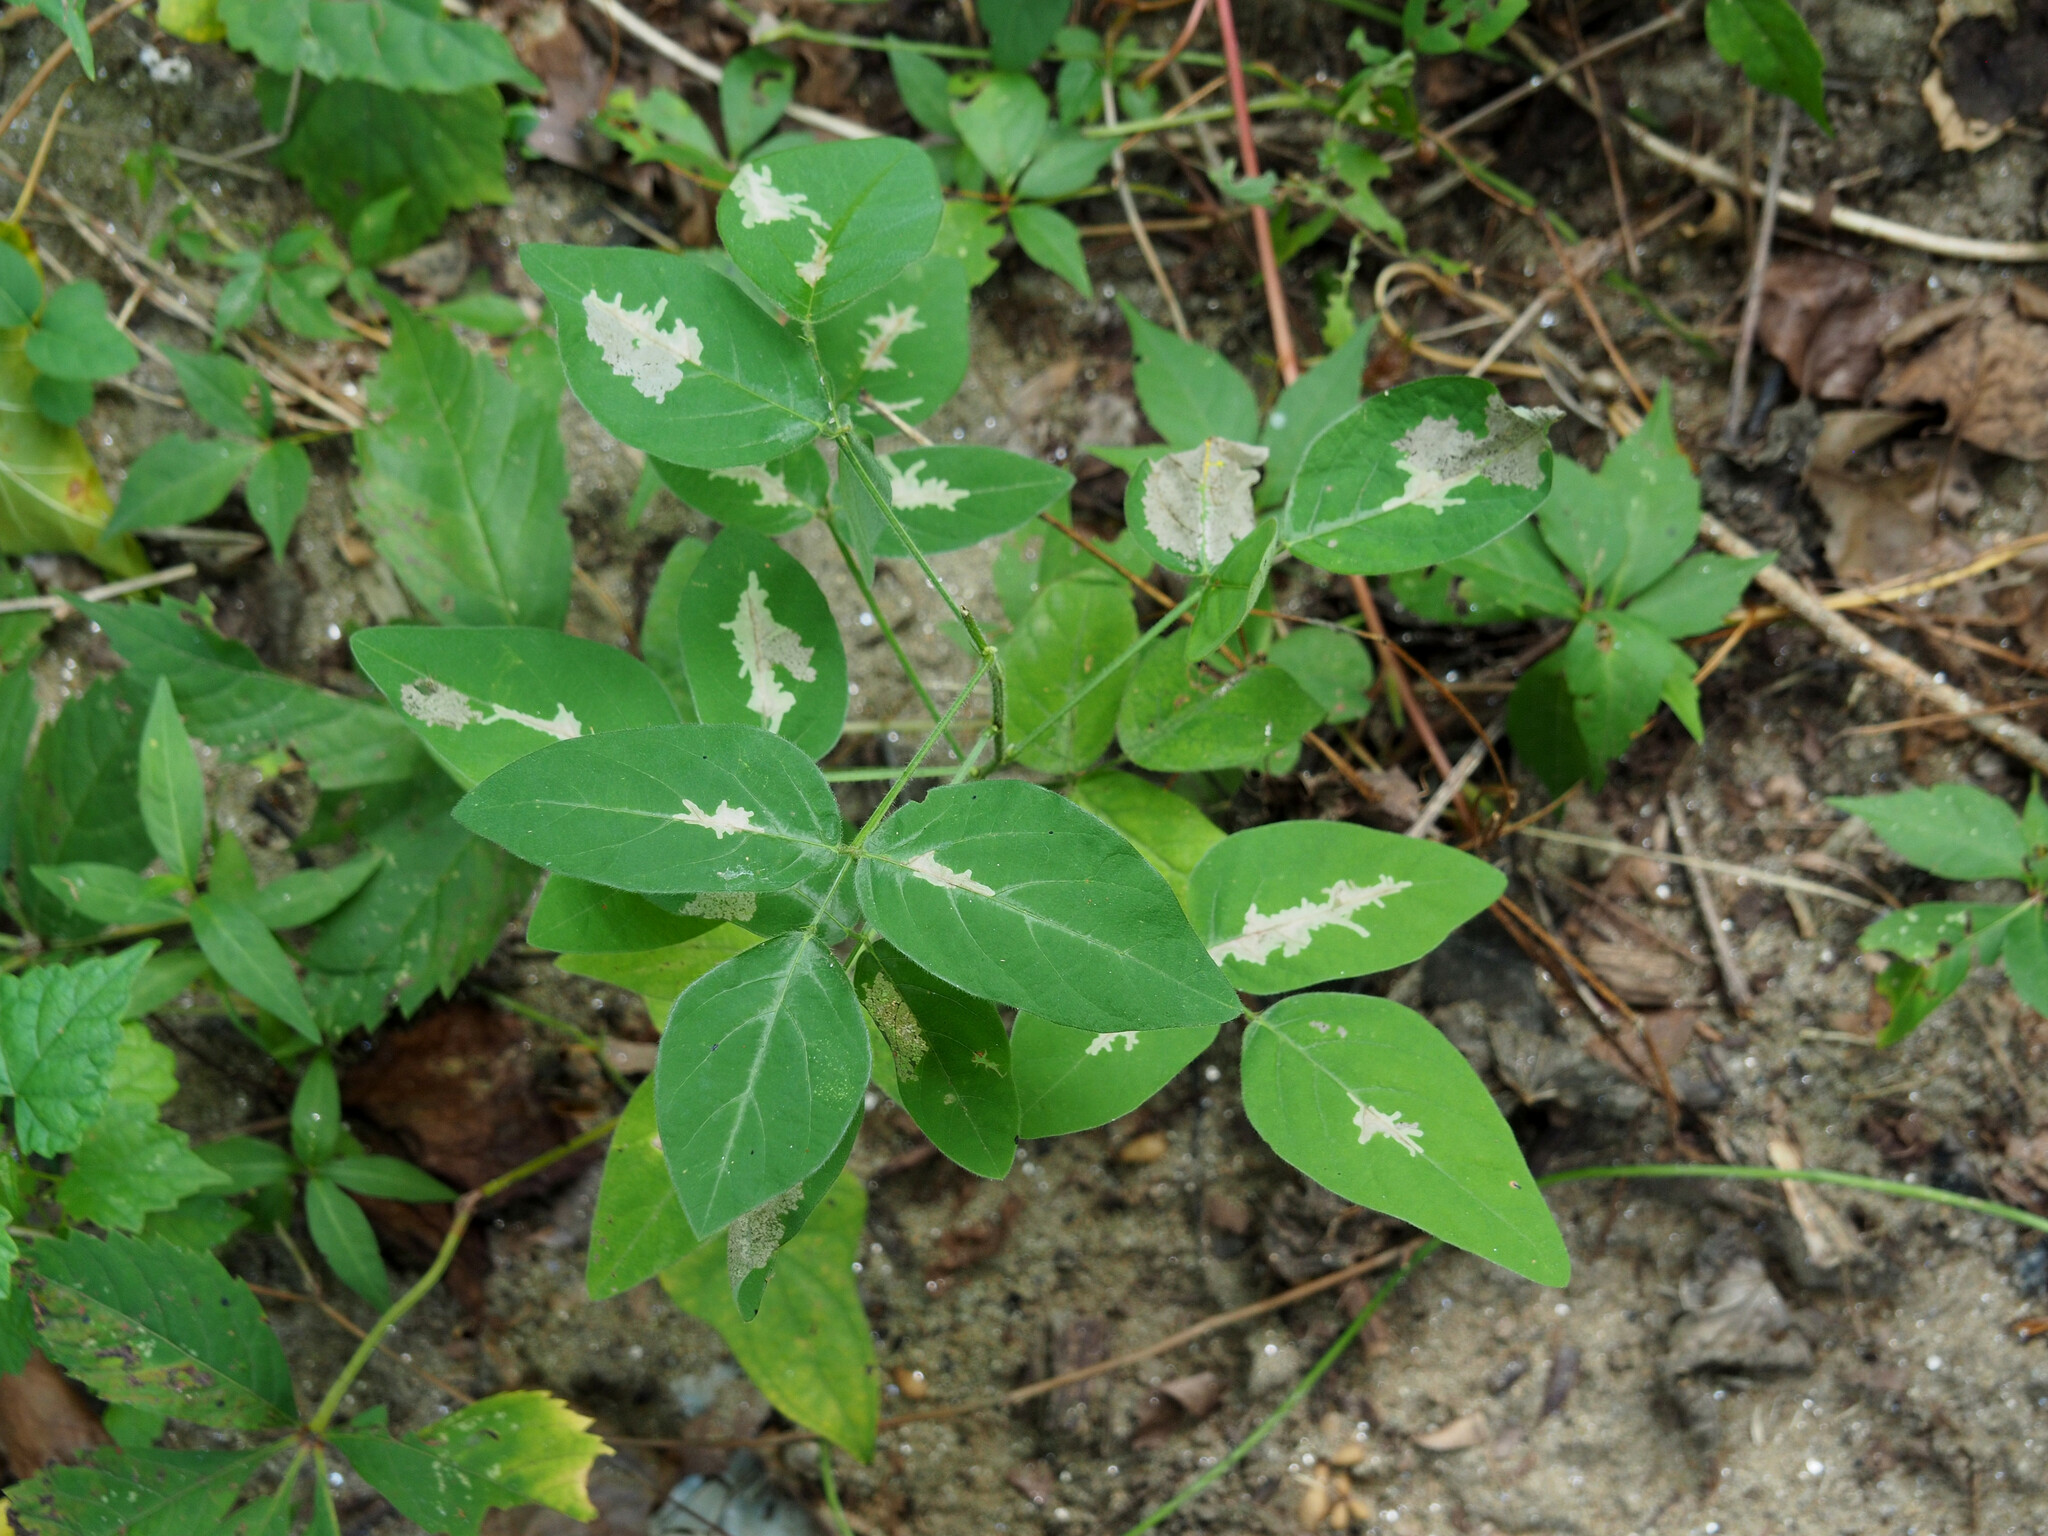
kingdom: Animalia
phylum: Arthropoda
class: Insecta
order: Lepidoptera
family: Gracillariidae
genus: Parectopa
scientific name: Parectopa robiniella
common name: Locust digitate leafminer
